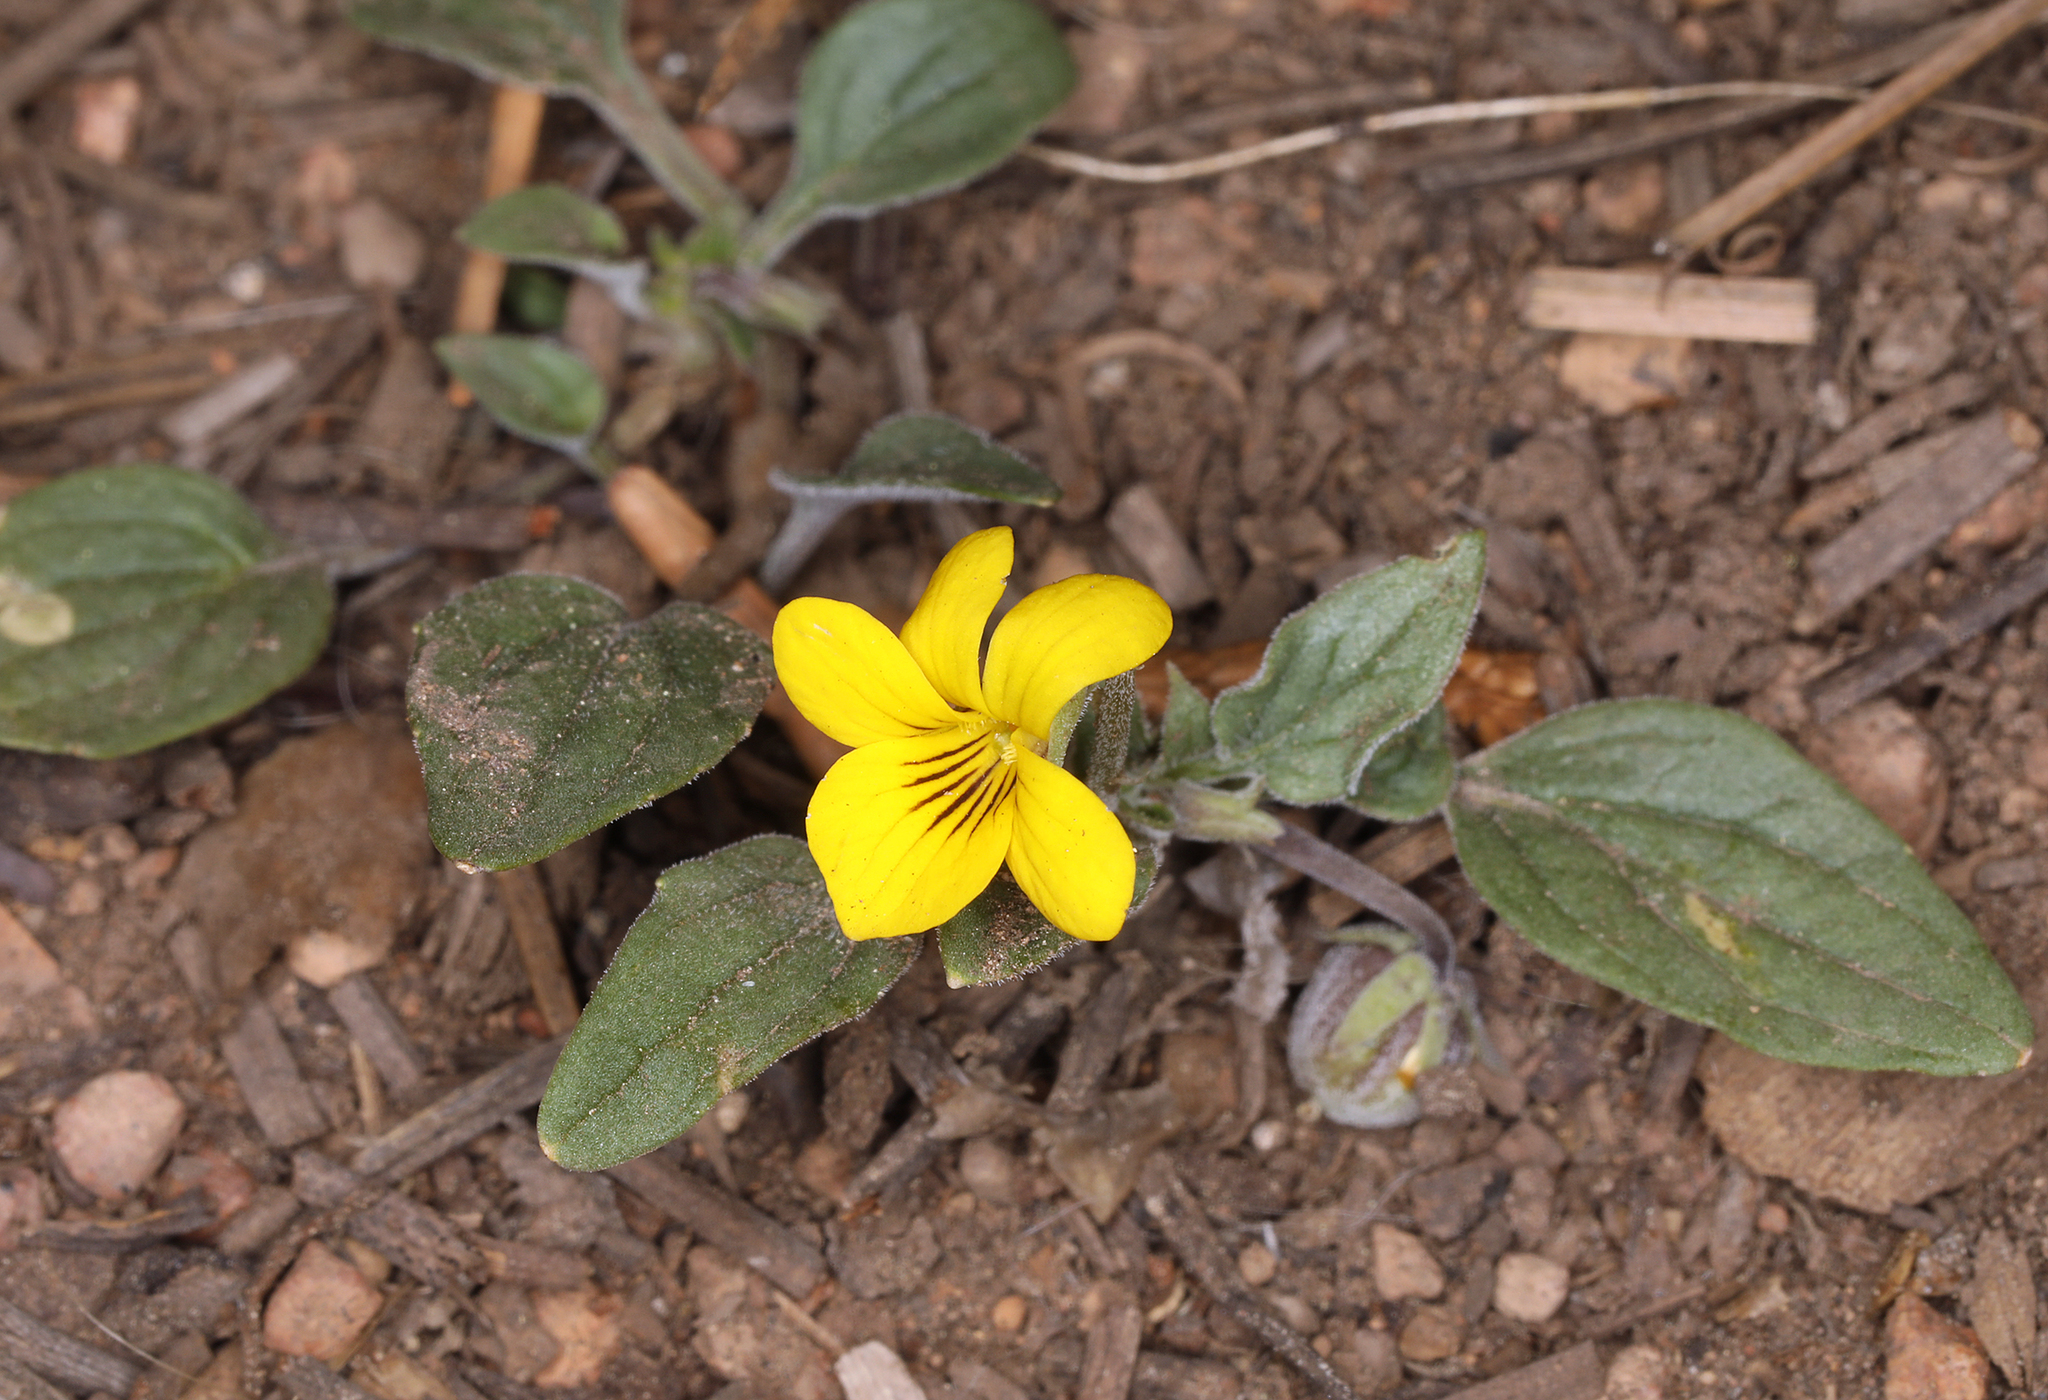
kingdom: Plantae
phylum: Tracheophyta
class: Magnoliopsida
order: Malpighiales
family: Violaceae
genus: Viola
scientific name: Viola purpurea
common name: Pine violet
